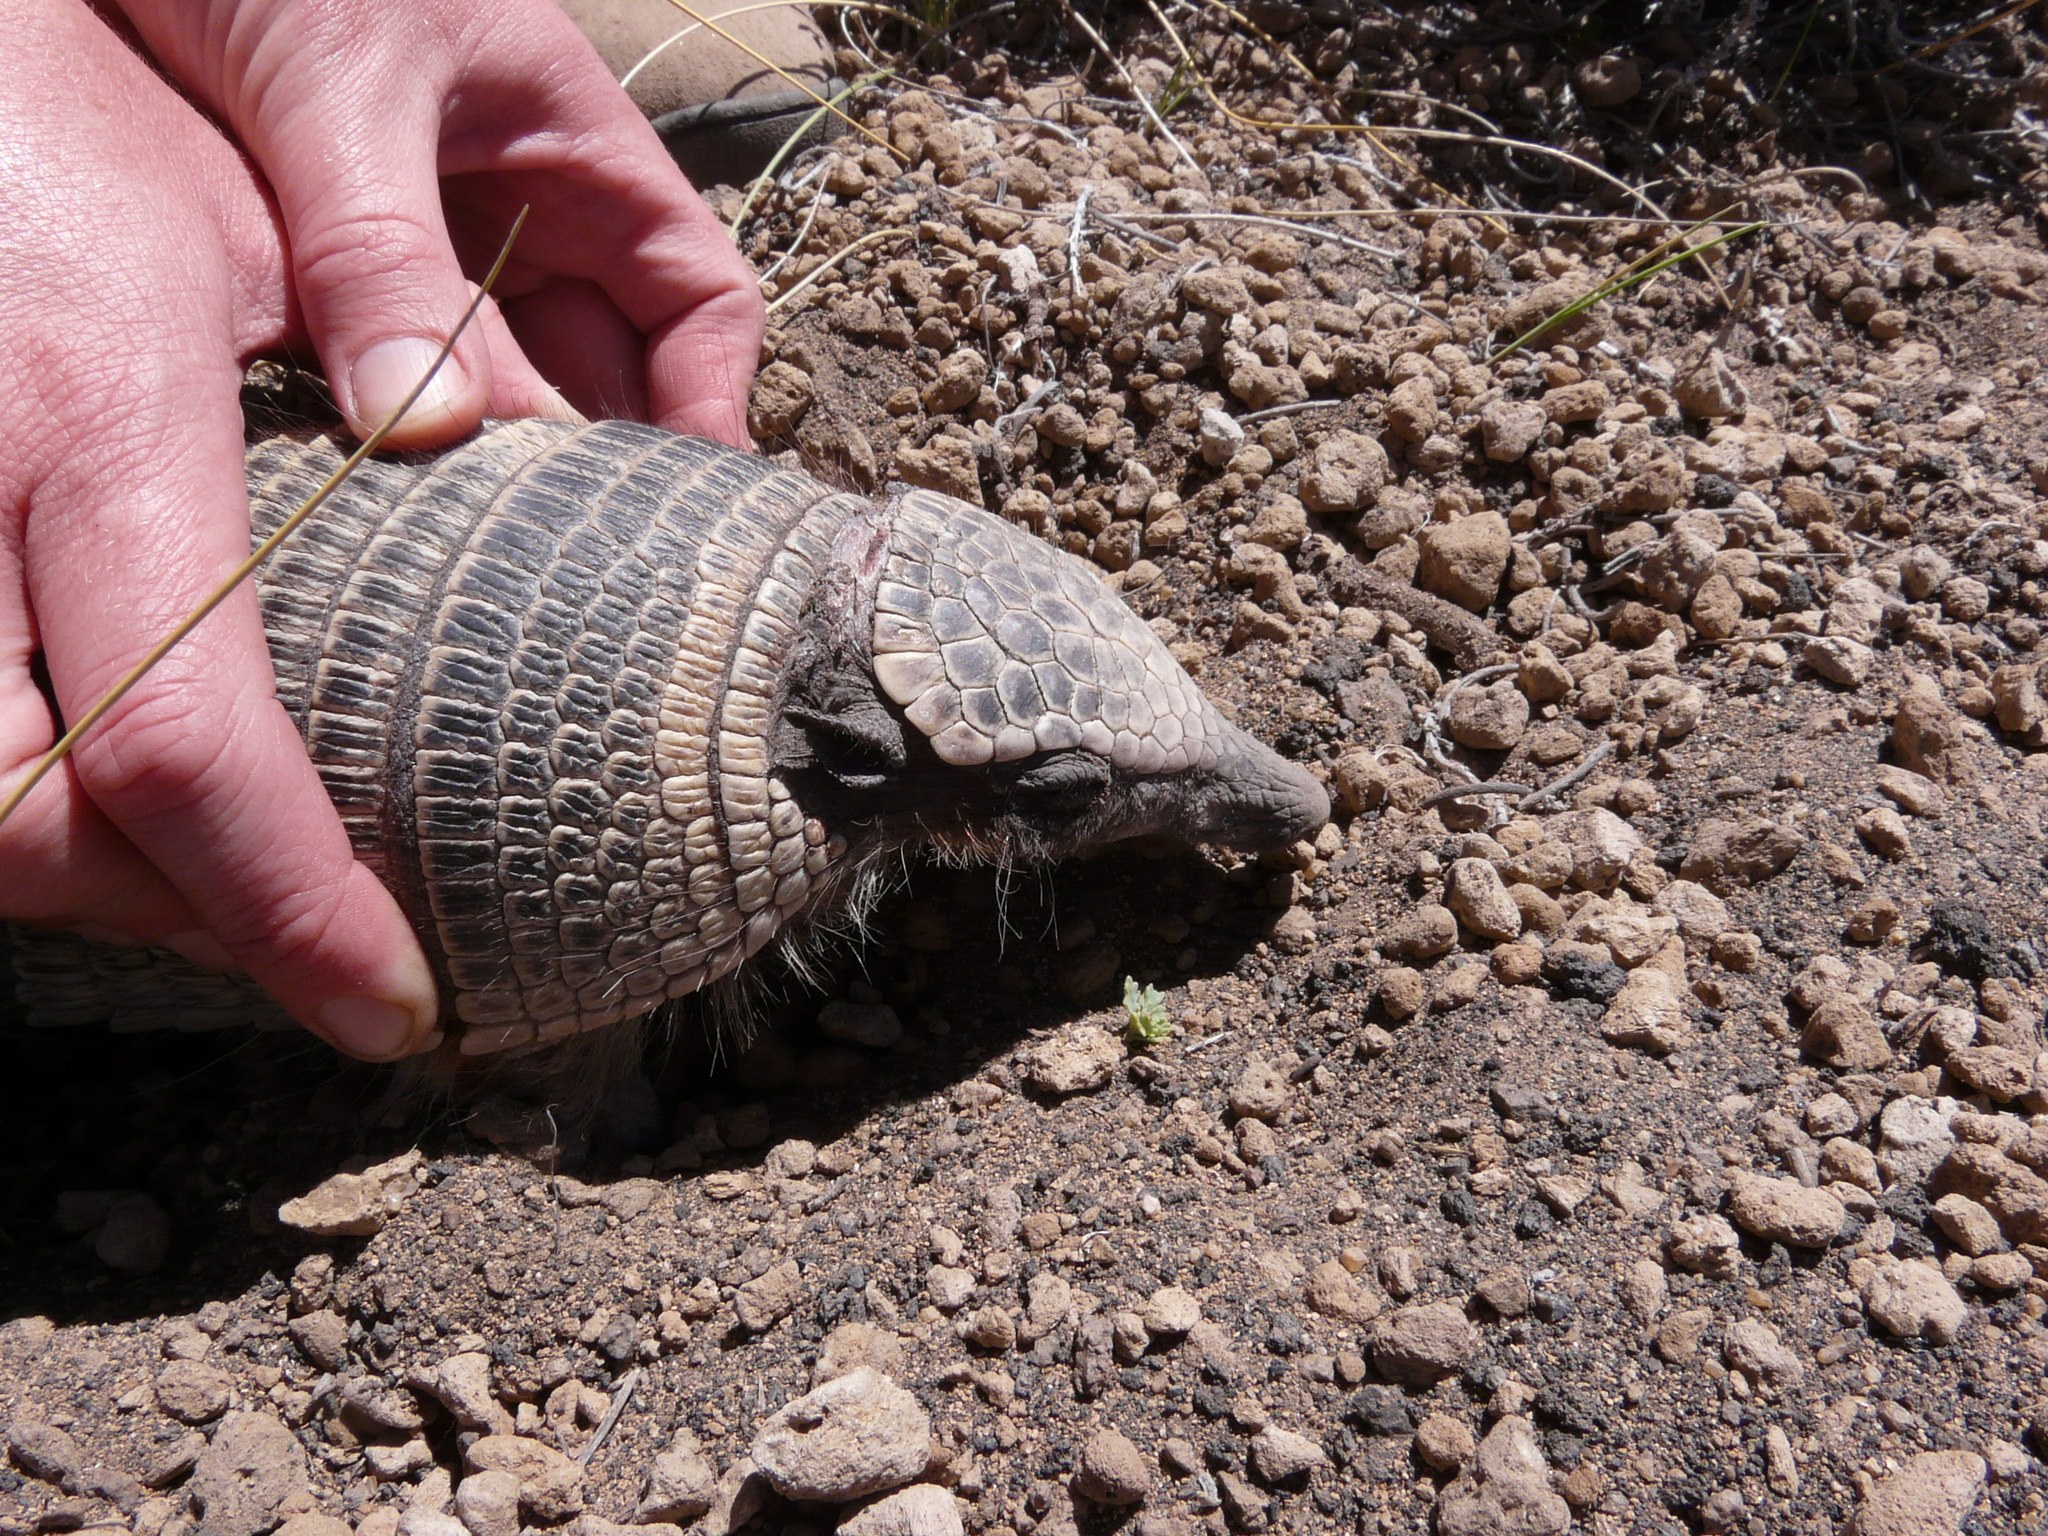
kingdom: Animalia
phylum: Chordata
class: Mammalia
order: Cingulata
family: Dasypodidae
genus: Zaedyus
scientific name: Zaedyus pichiy
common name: Pichi
